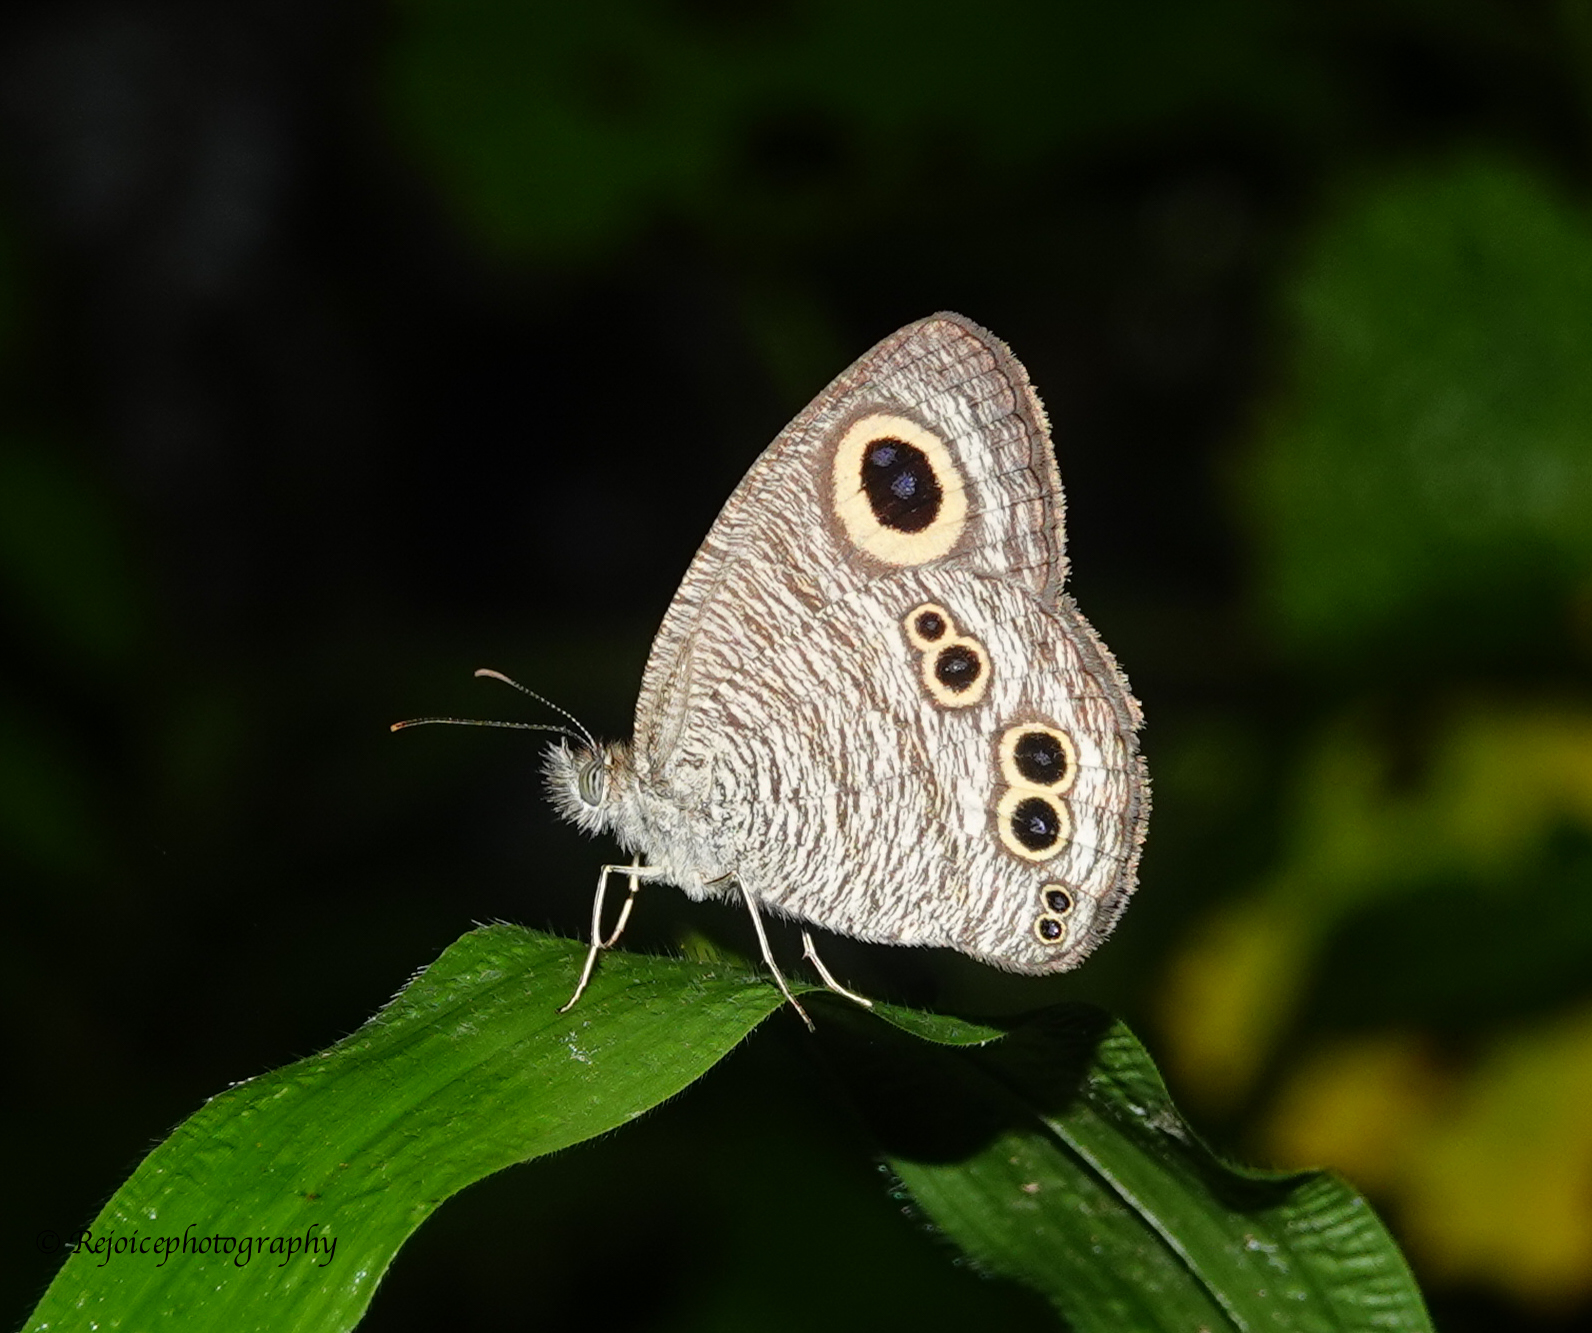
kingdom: Animalia
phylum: Arthropoda
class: Insecta
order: Lepidoptera
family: Nymphalidae
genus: Ypthima
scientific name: Ypthima baldus
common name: Common five-ring
